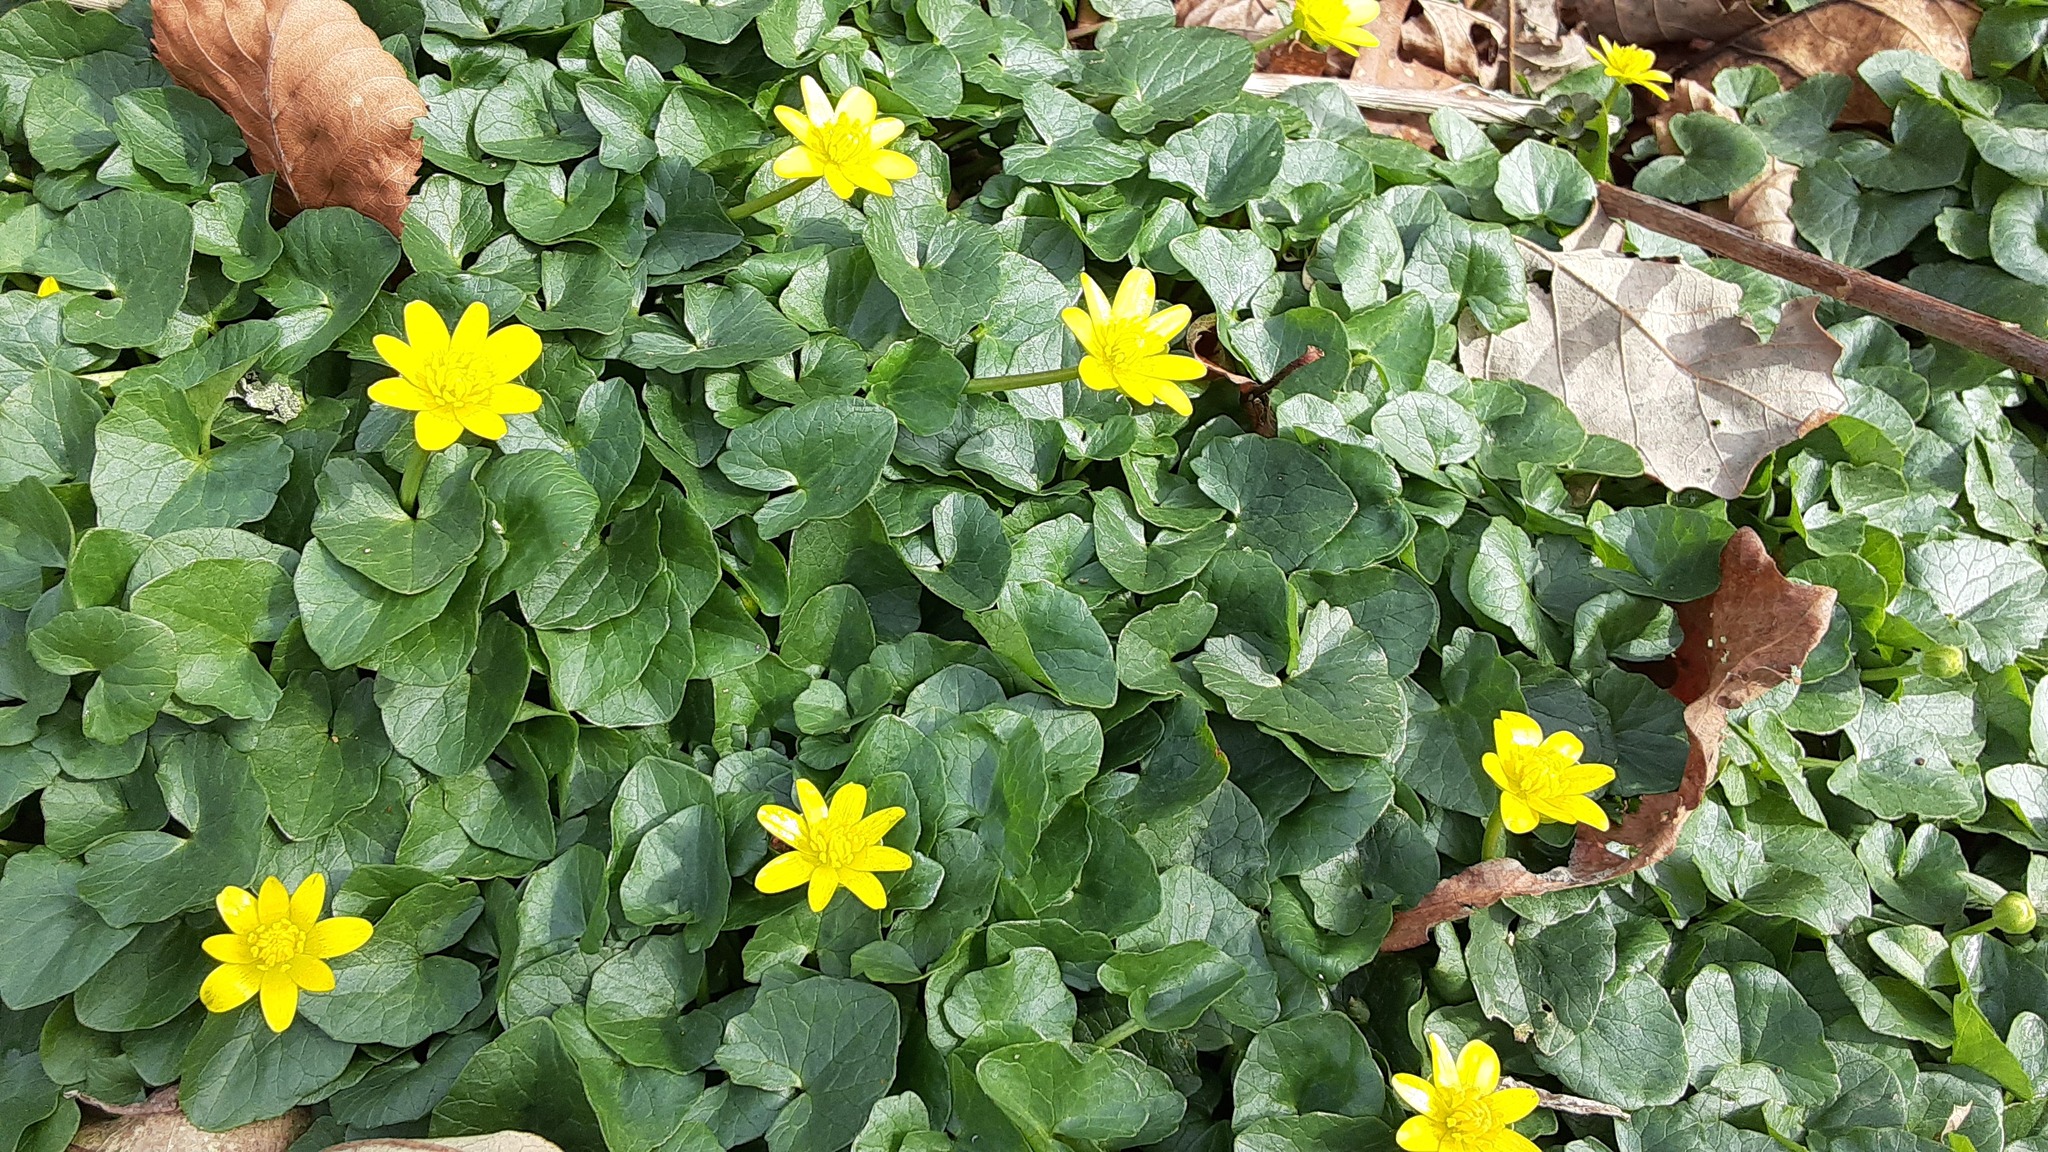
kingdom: Plantae
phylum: Tracheophyta
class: Magnoliopsida
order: Ranunculales
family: Ranunculaceae
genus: Ficaria
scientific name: Ficaria verna
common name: Lesser celandine
